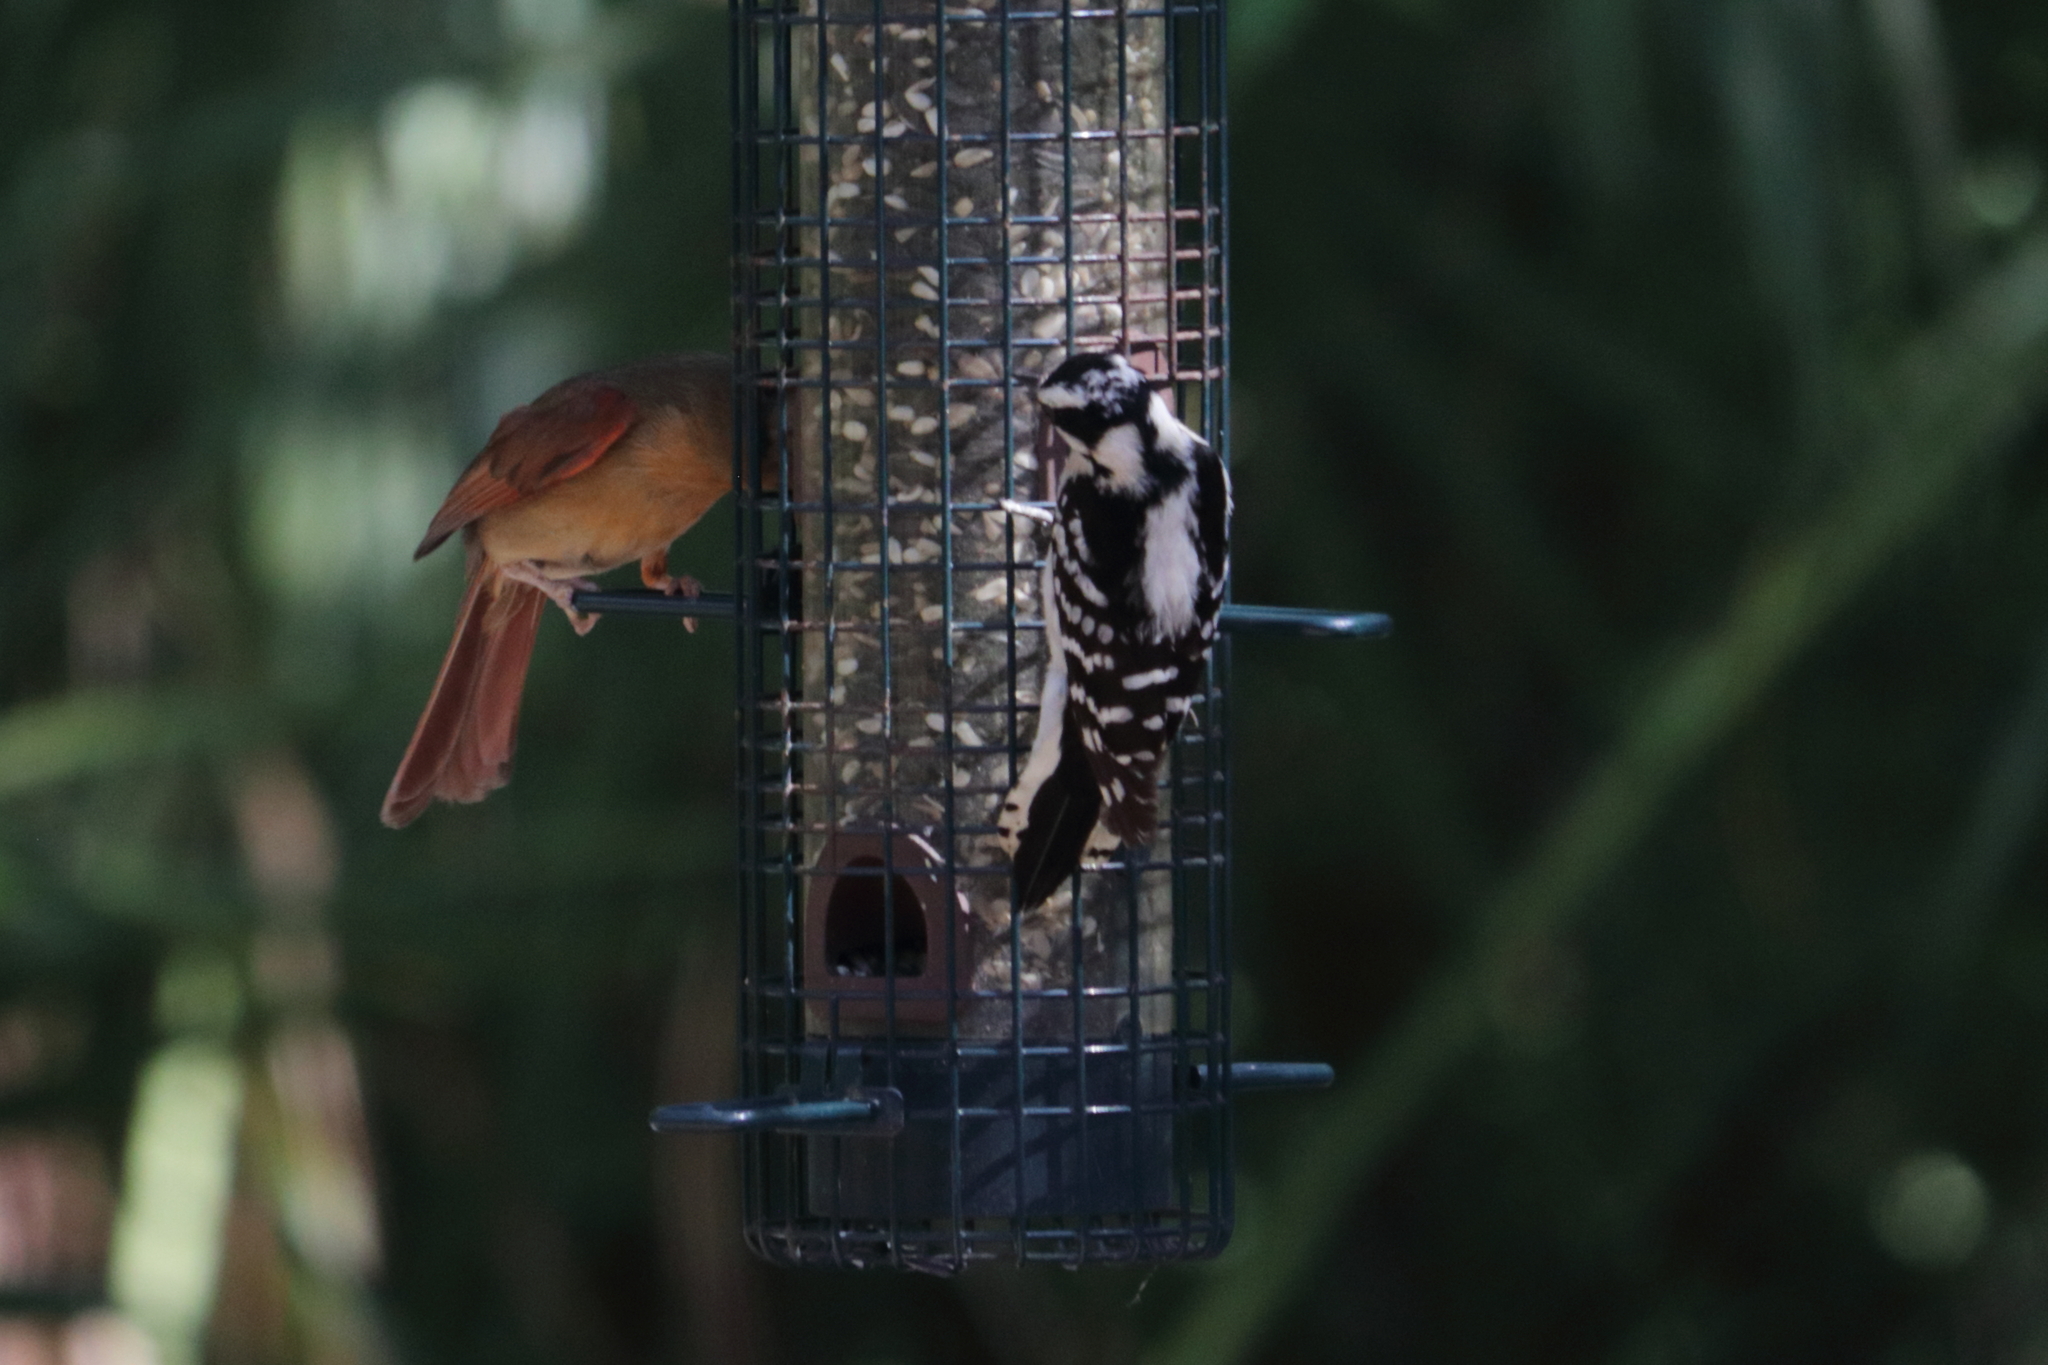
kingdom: Animalia
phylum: Chordata
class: Aves
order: Passeriformes
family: Cardinalidae
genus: Cardinalis
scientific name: Cardinalis cardinalis
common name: Northern cardinal
